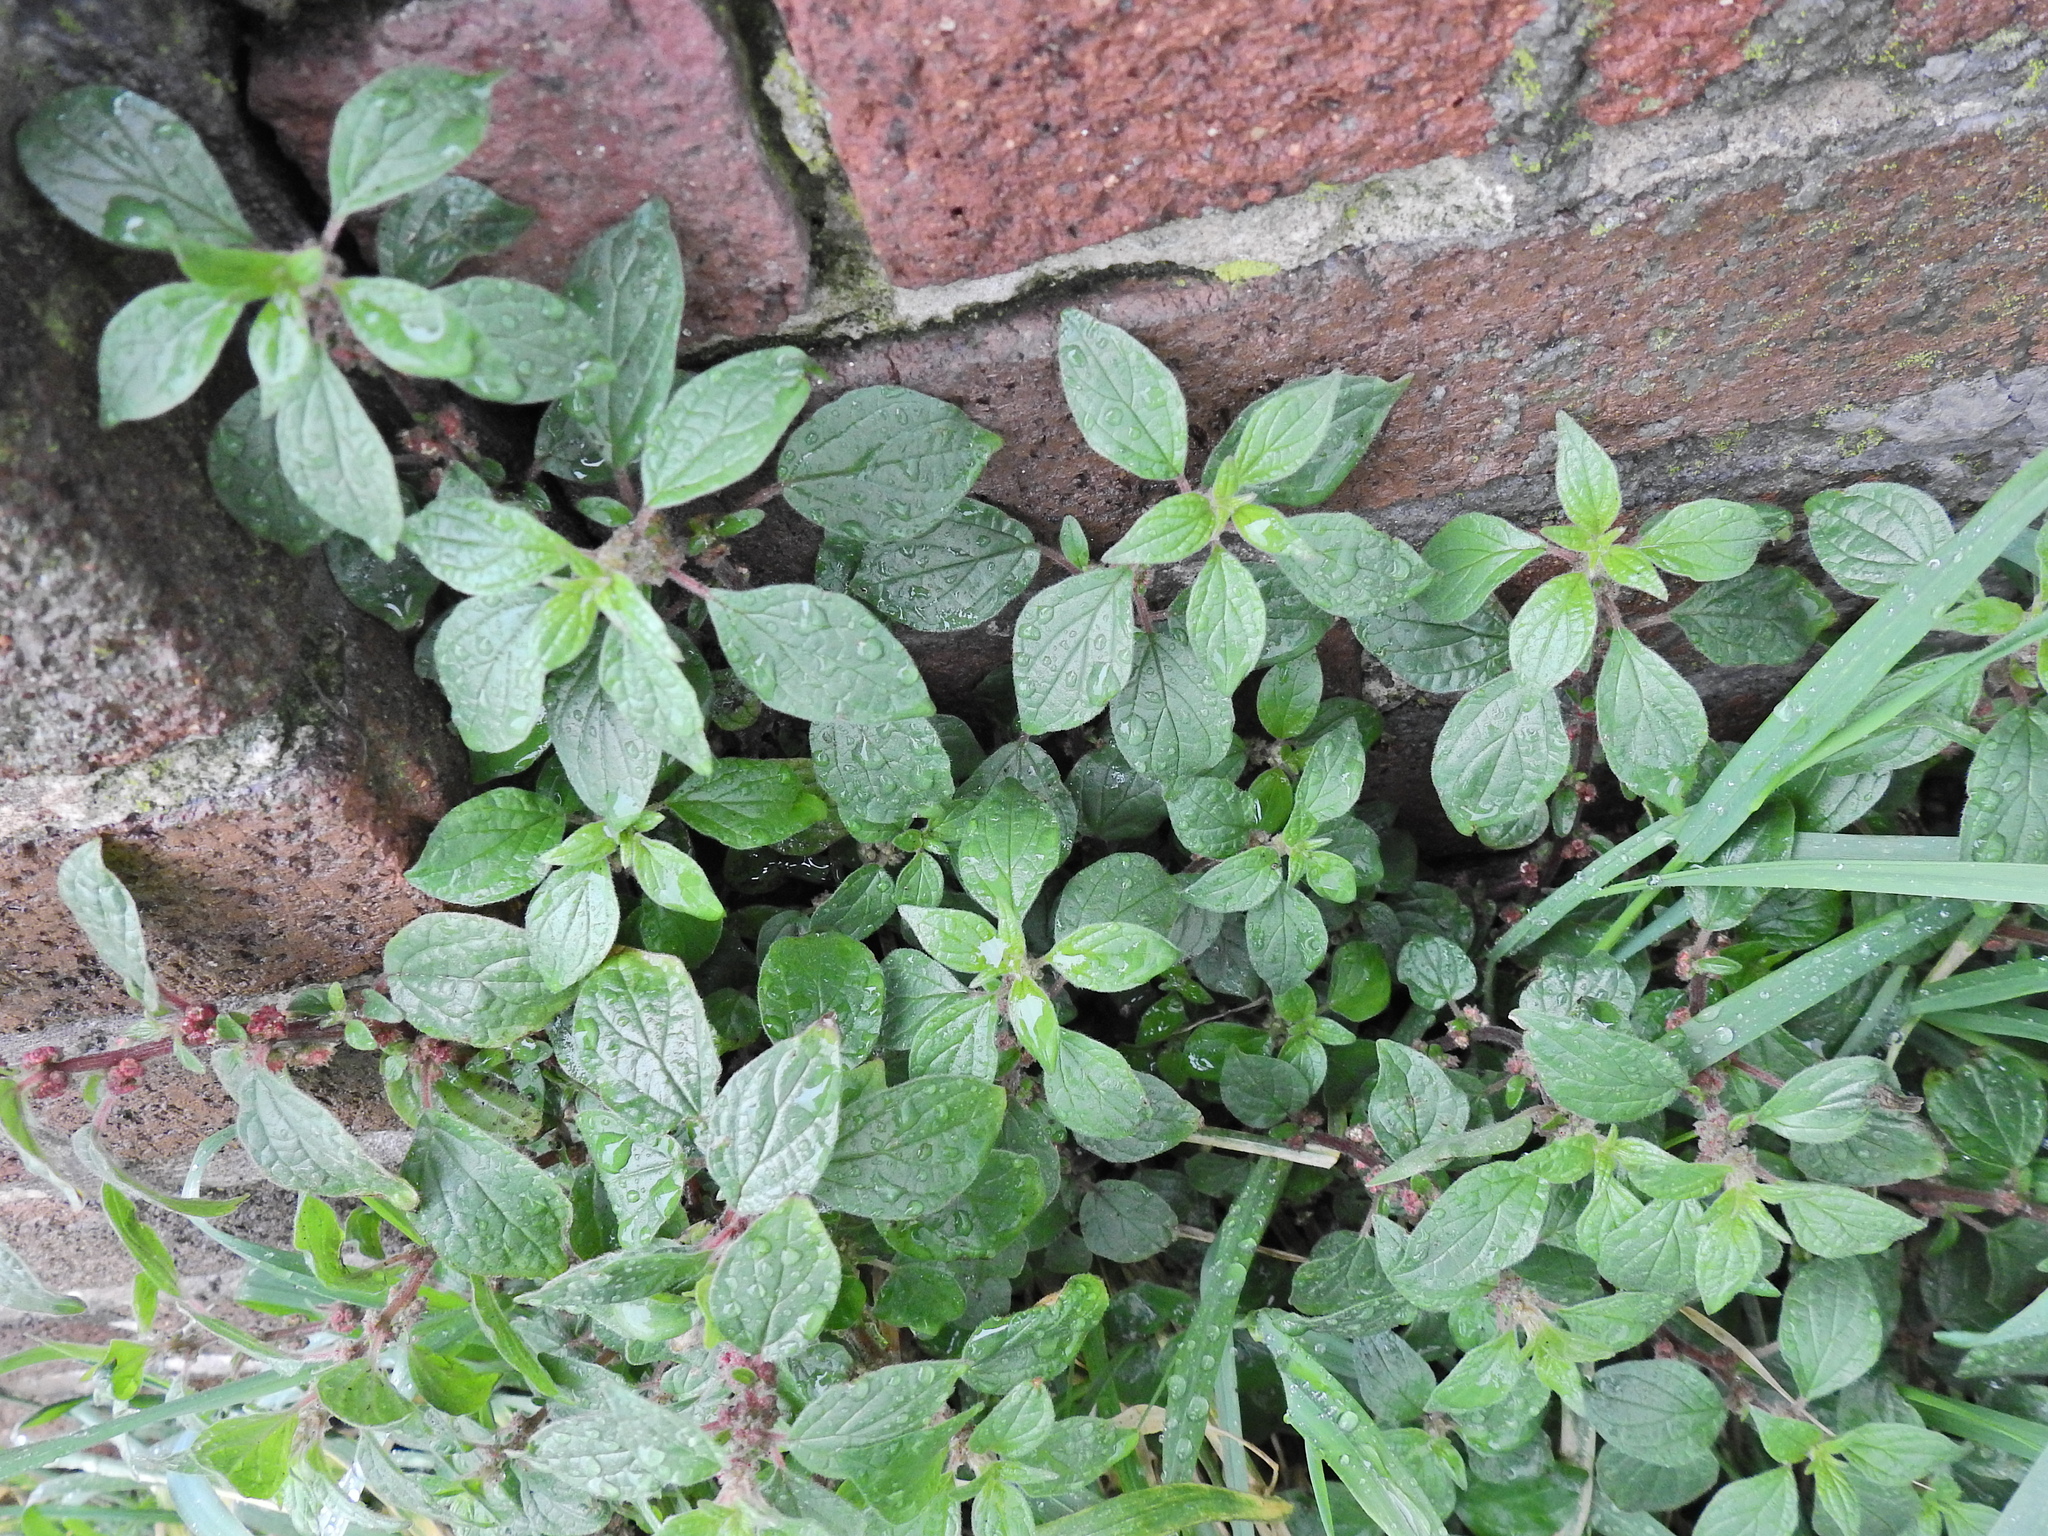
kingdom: Plantae
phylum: Tracheophyta
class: Magnoliopsida
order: Rosales
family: Urticaceae
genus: Parietaria
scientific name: Parietaria judaica
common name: Pellitory-of-the-wall
